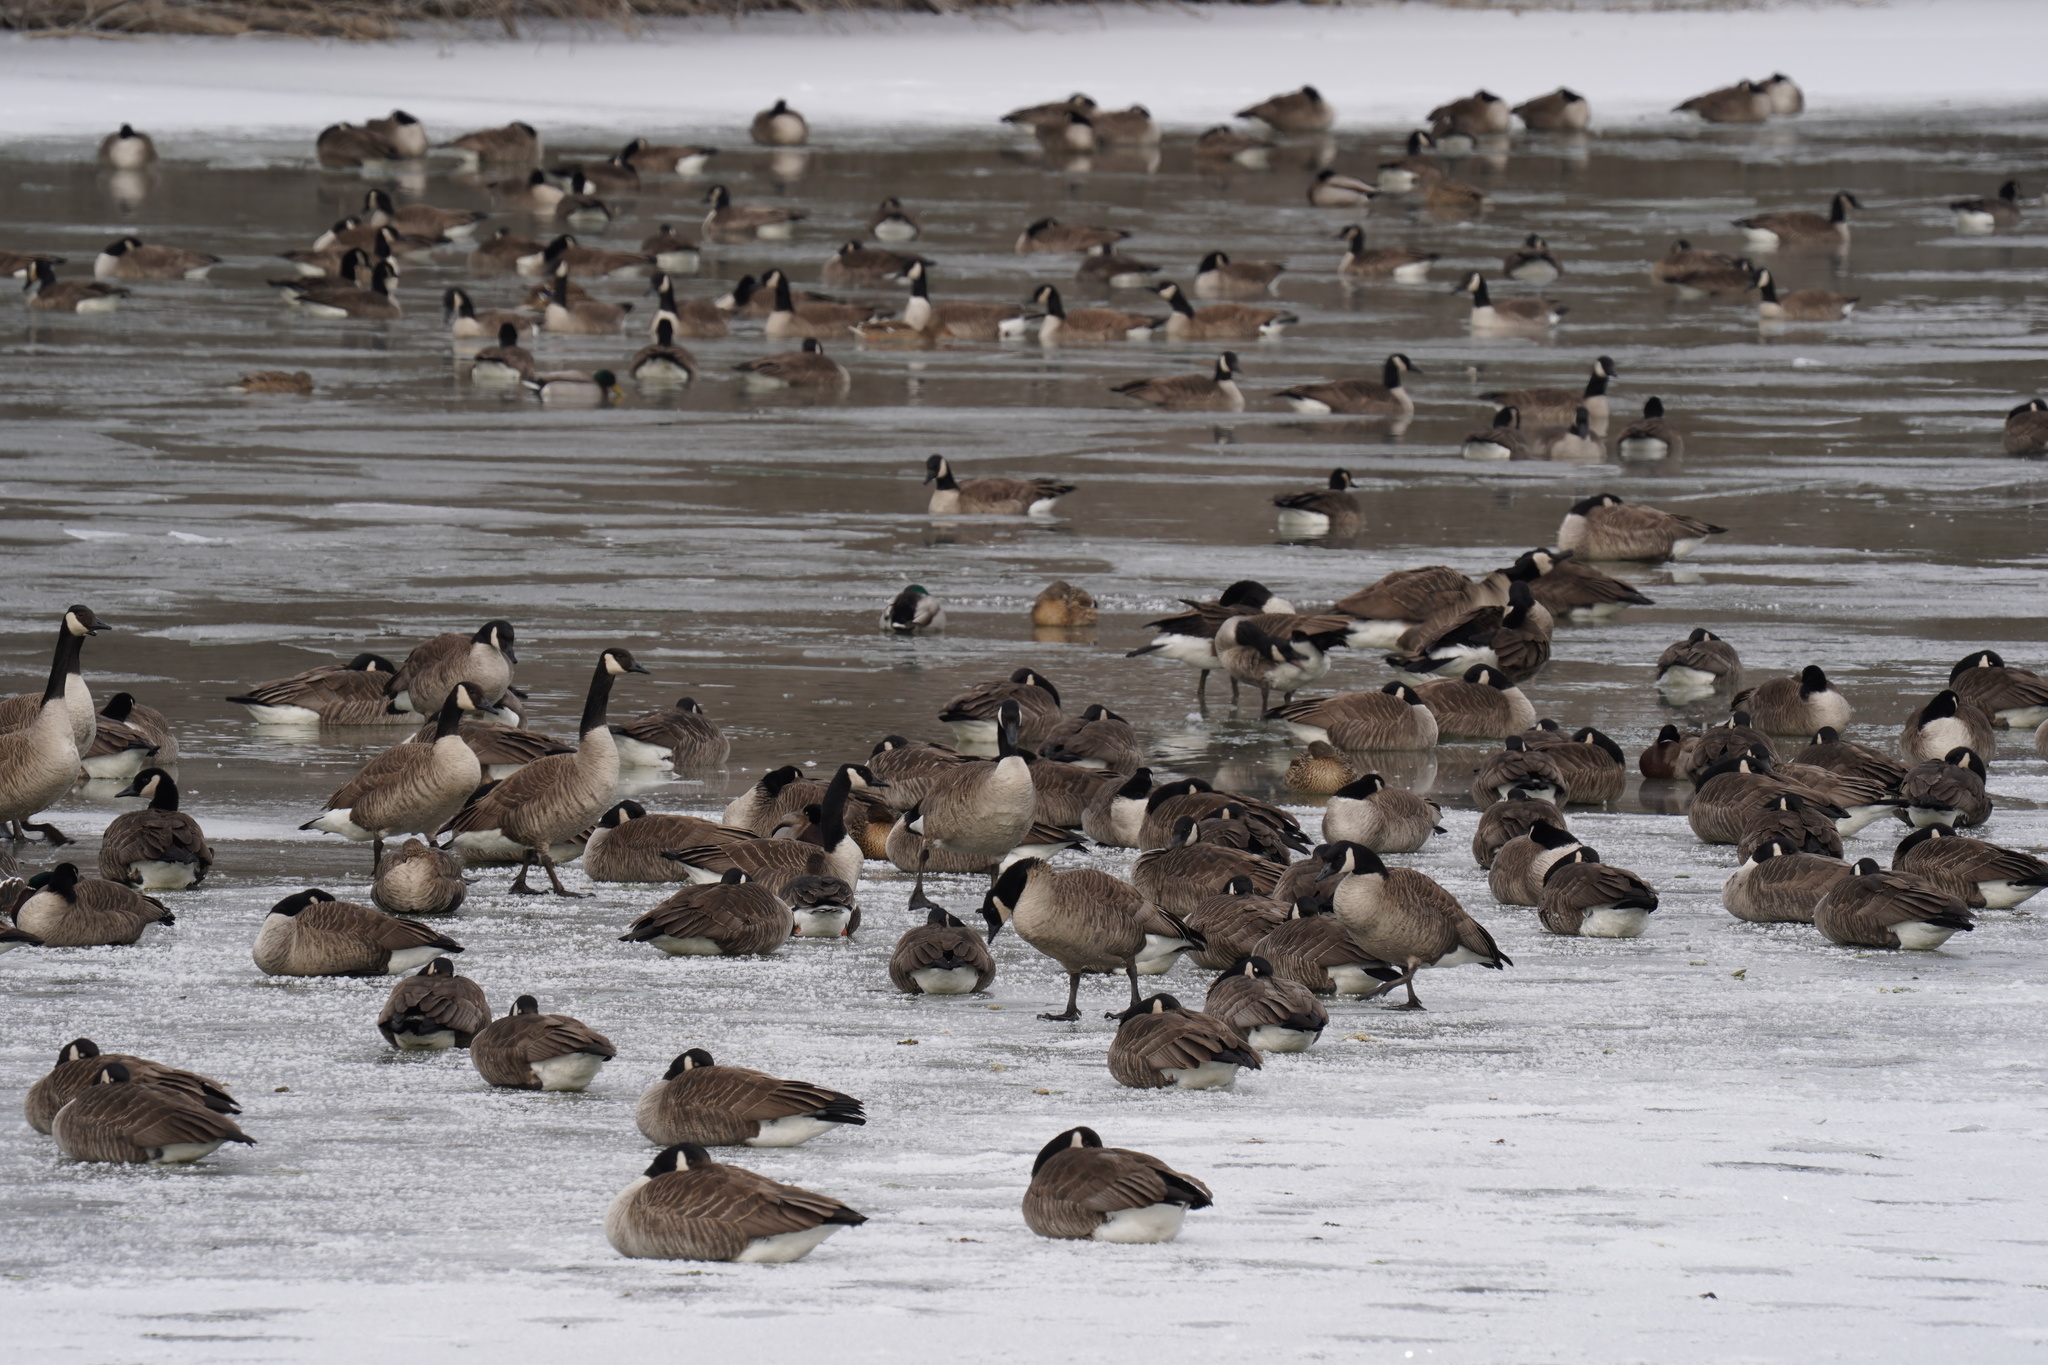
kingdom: Animalia
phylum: Chordata
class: Aves
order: Anseriformes
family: Anatidae
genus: Branta
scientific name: Branta canadensis
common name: Canada goose
